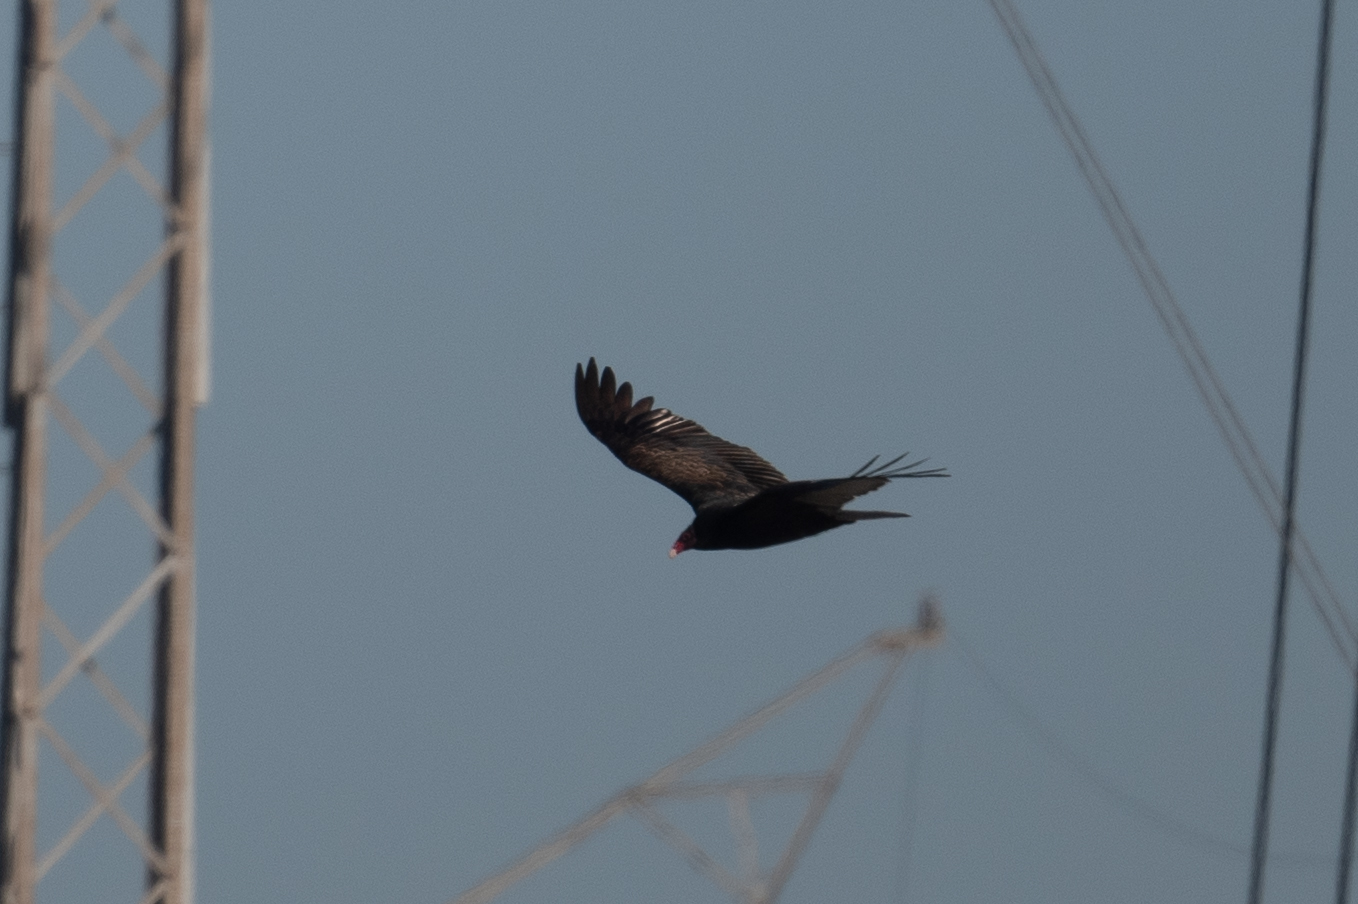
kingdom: Animalia
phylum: Chordata
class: Aves
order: Accipitriformes
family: Cathartidae
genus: Cathartes
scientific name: Cathartes aura
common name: Turkey vulture
